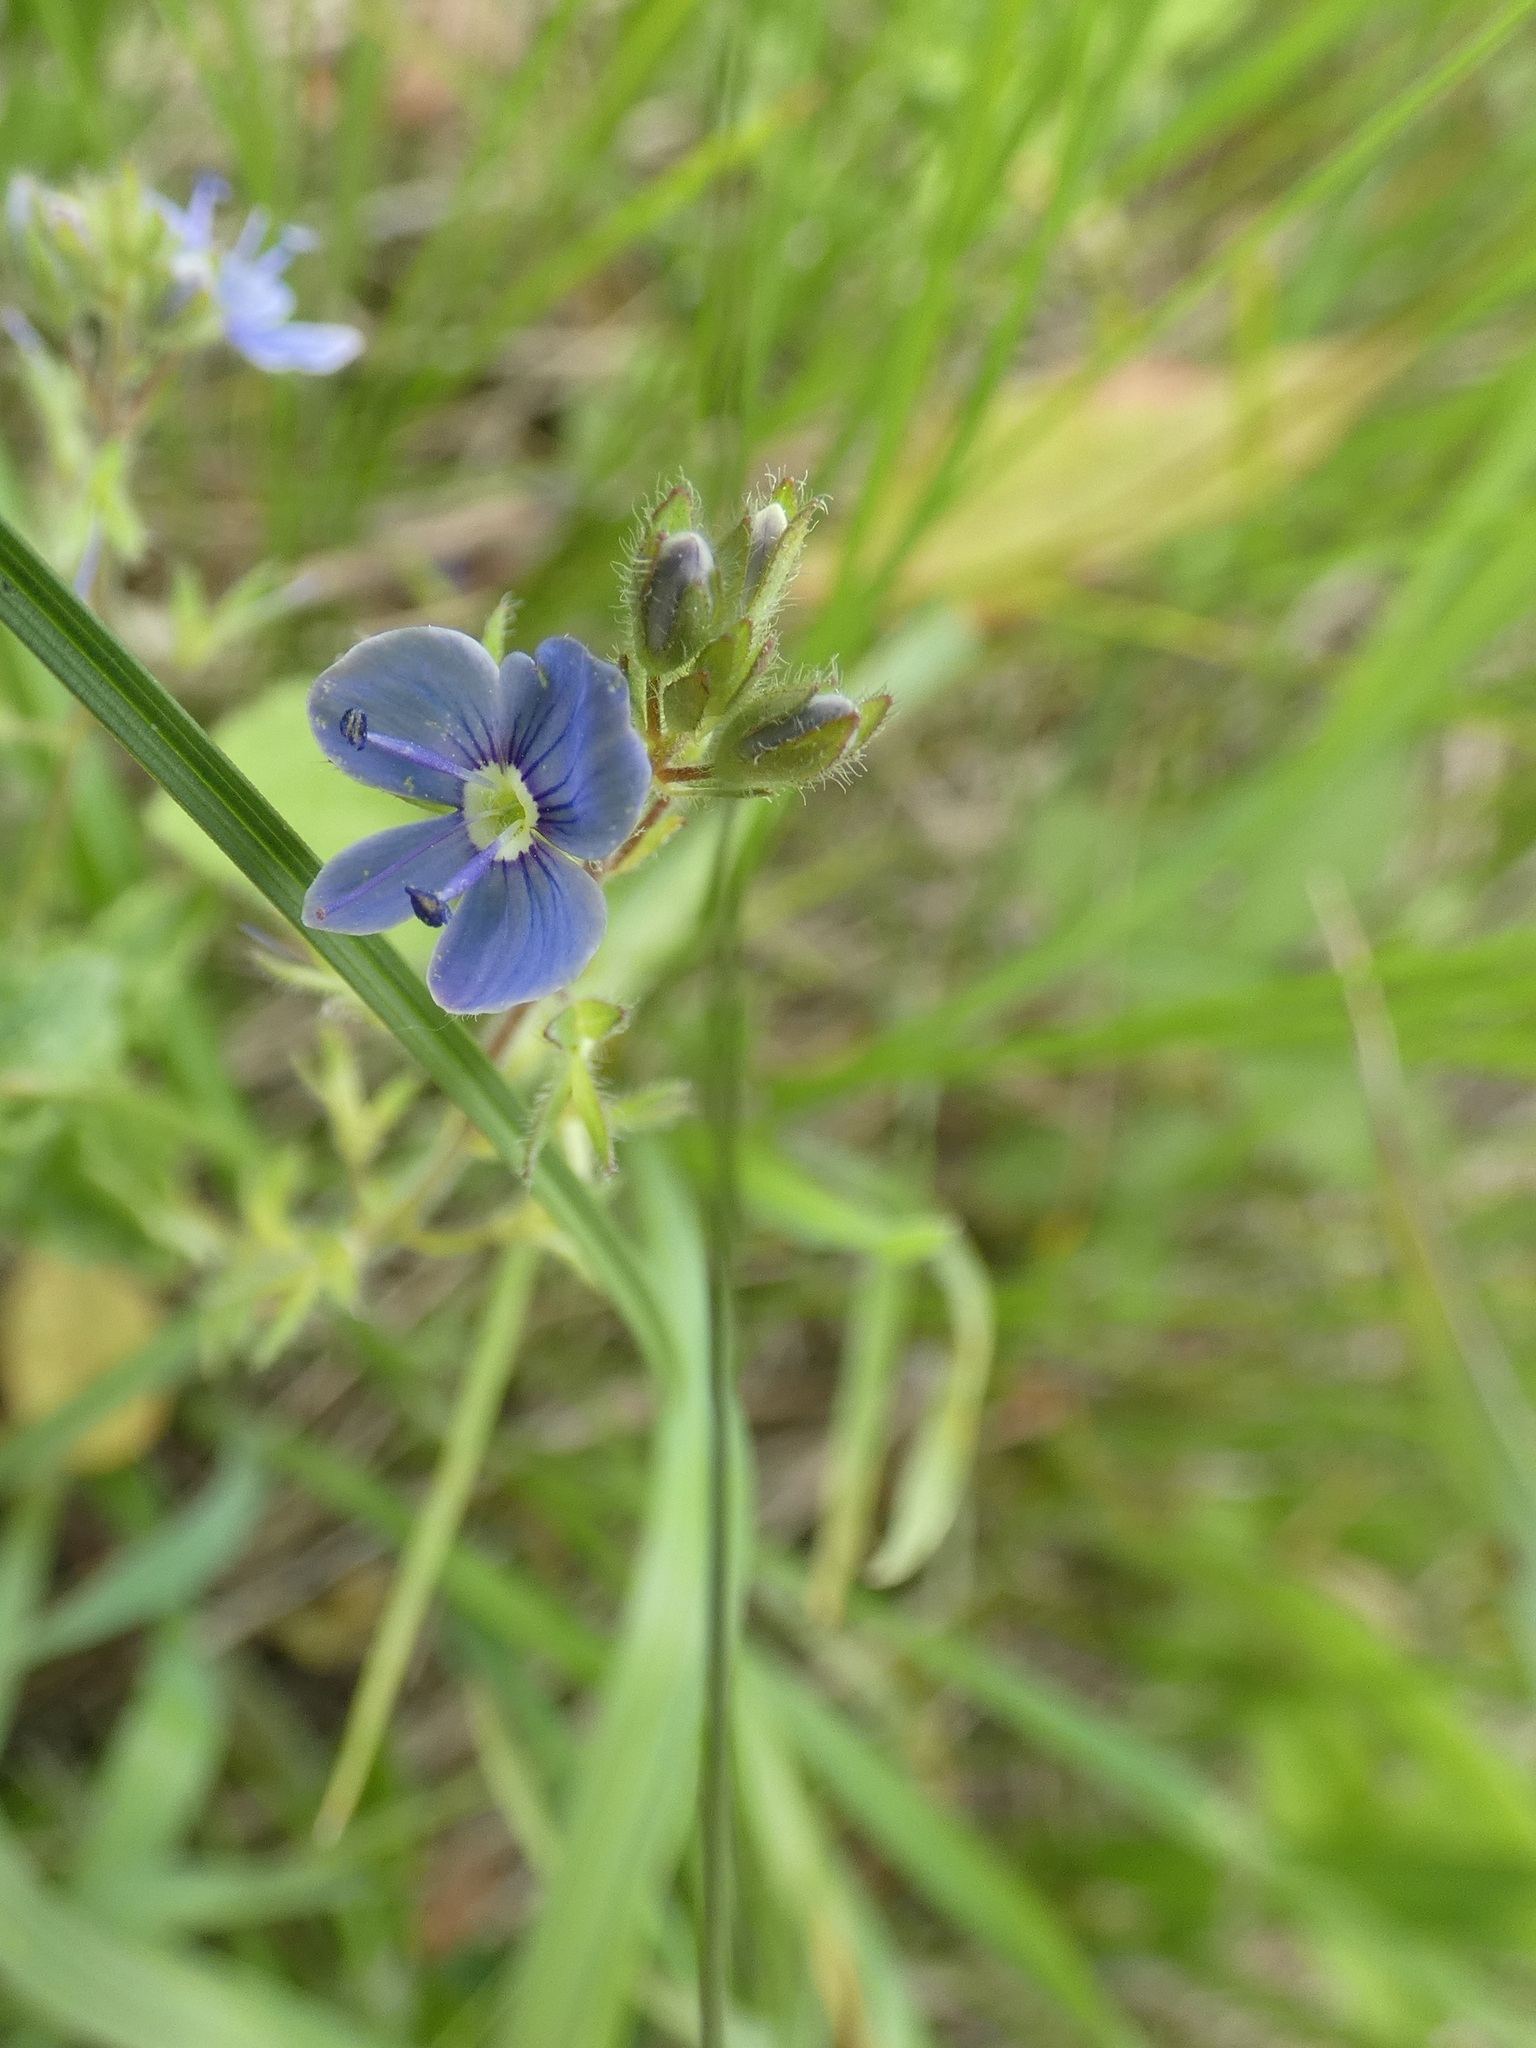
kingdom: Plantae
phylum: Tracheophyta
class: Magnoliopsida
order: Lamiales
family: Plantaginaceae
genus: Veronica
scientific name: Veronica chamaedrys
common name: Germander speedwell
